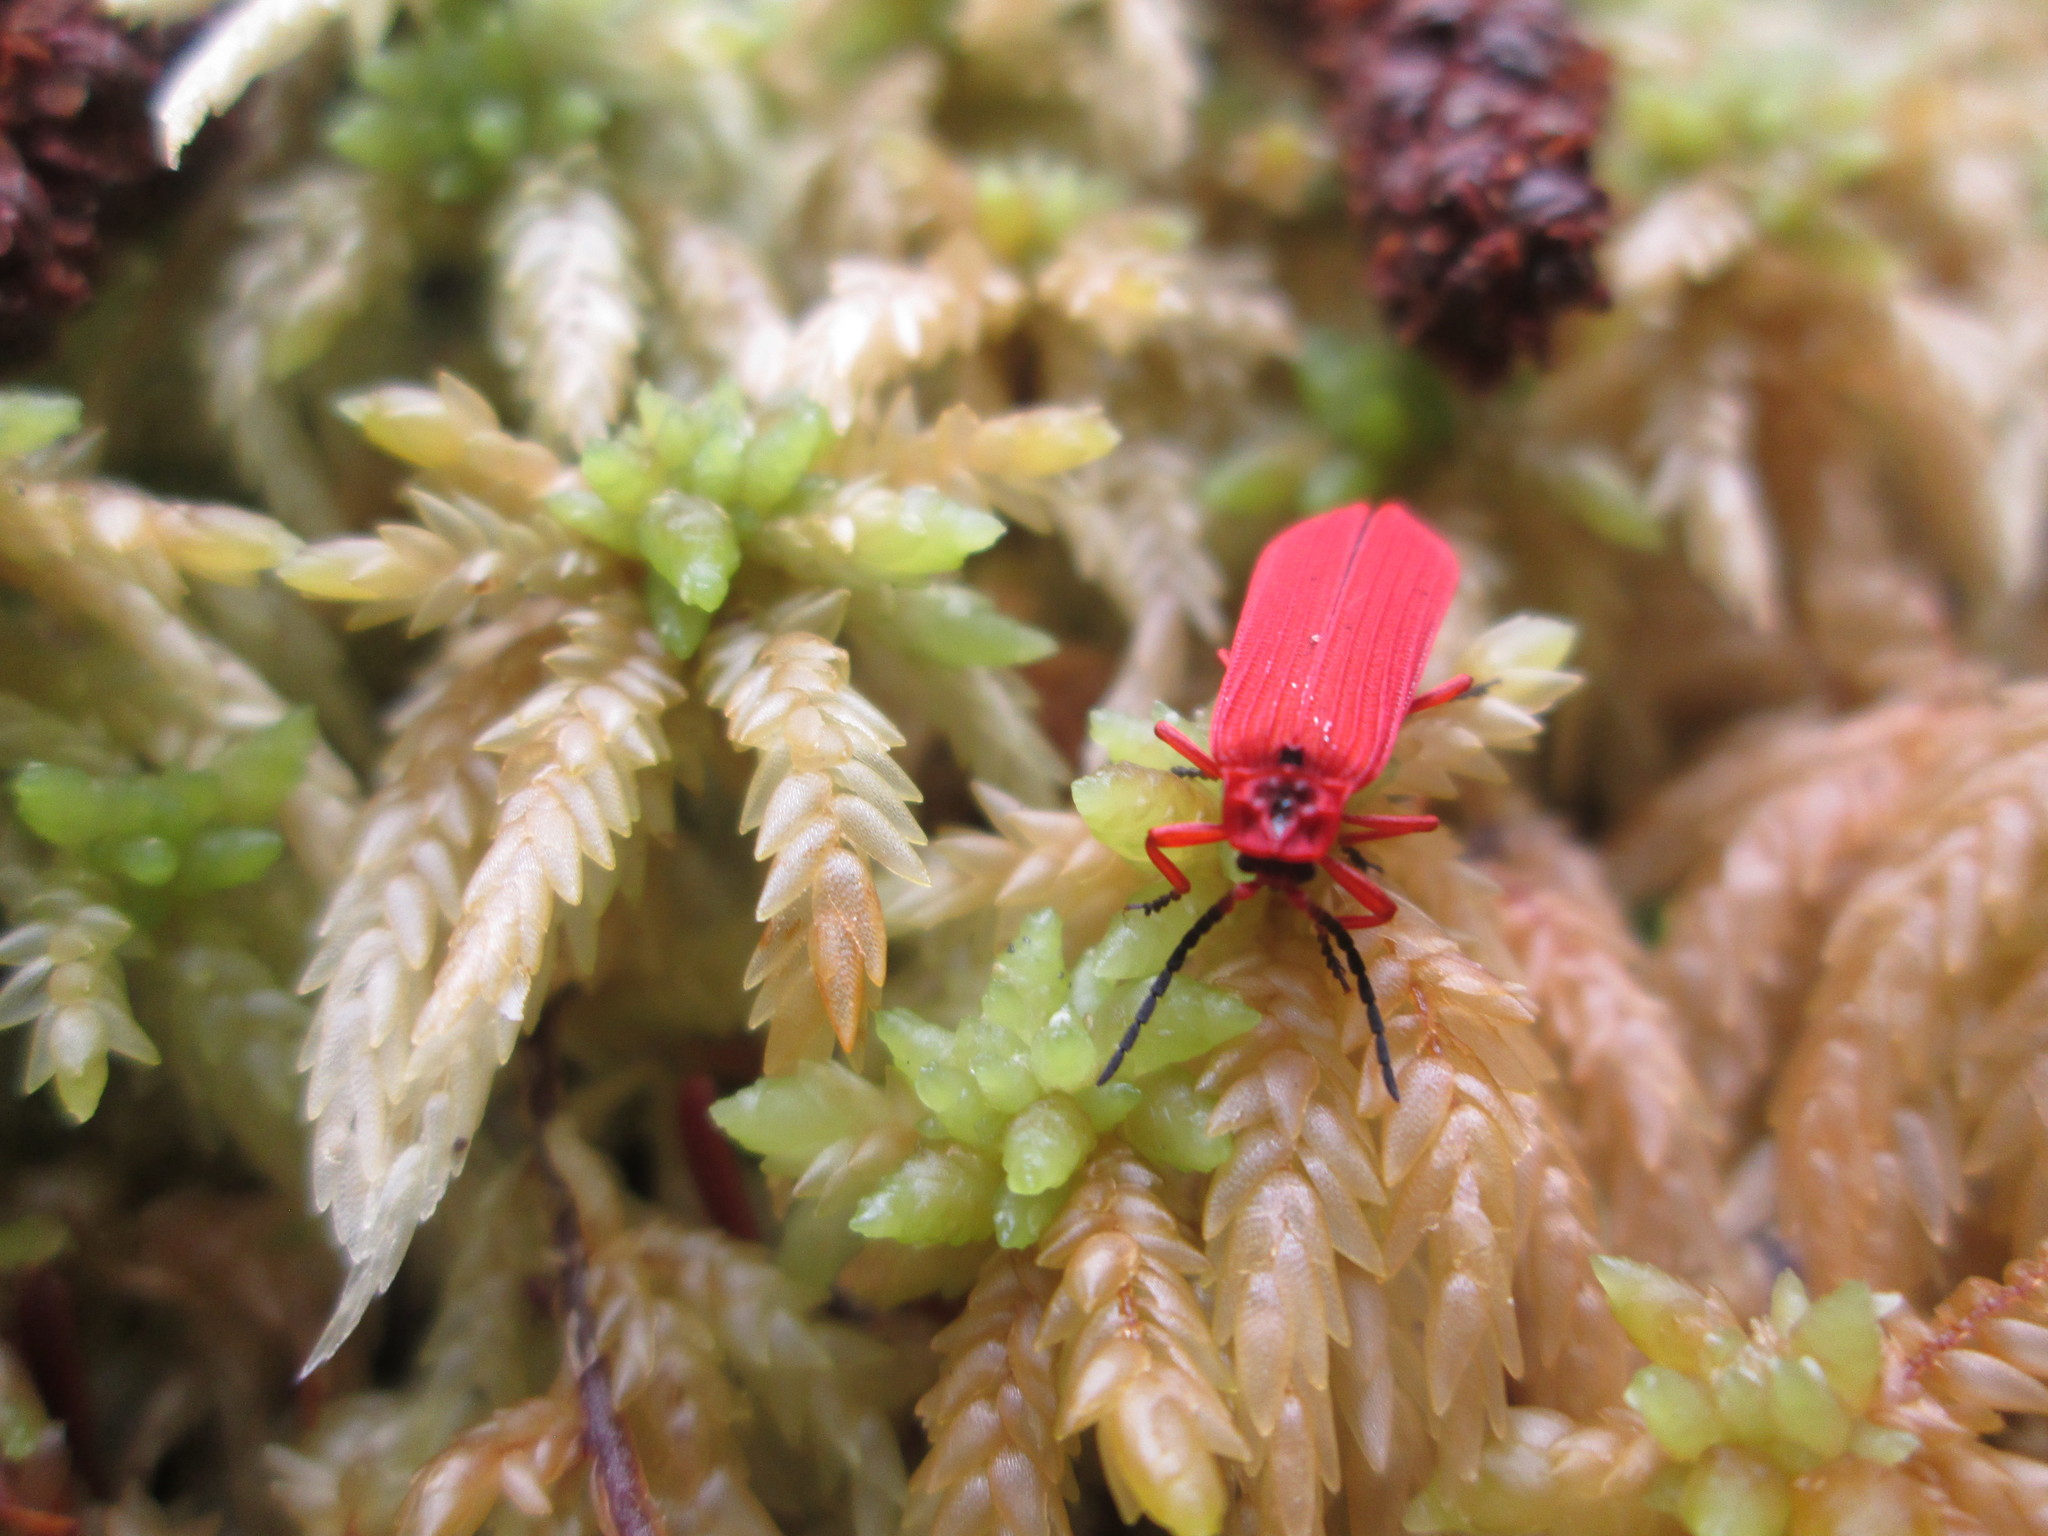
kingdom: Animalia
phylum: Arthropoda
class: Insecta
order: Coleoptera
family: Lycidae
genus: Dictyoptera
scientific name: Dictyoptera simplicipes
